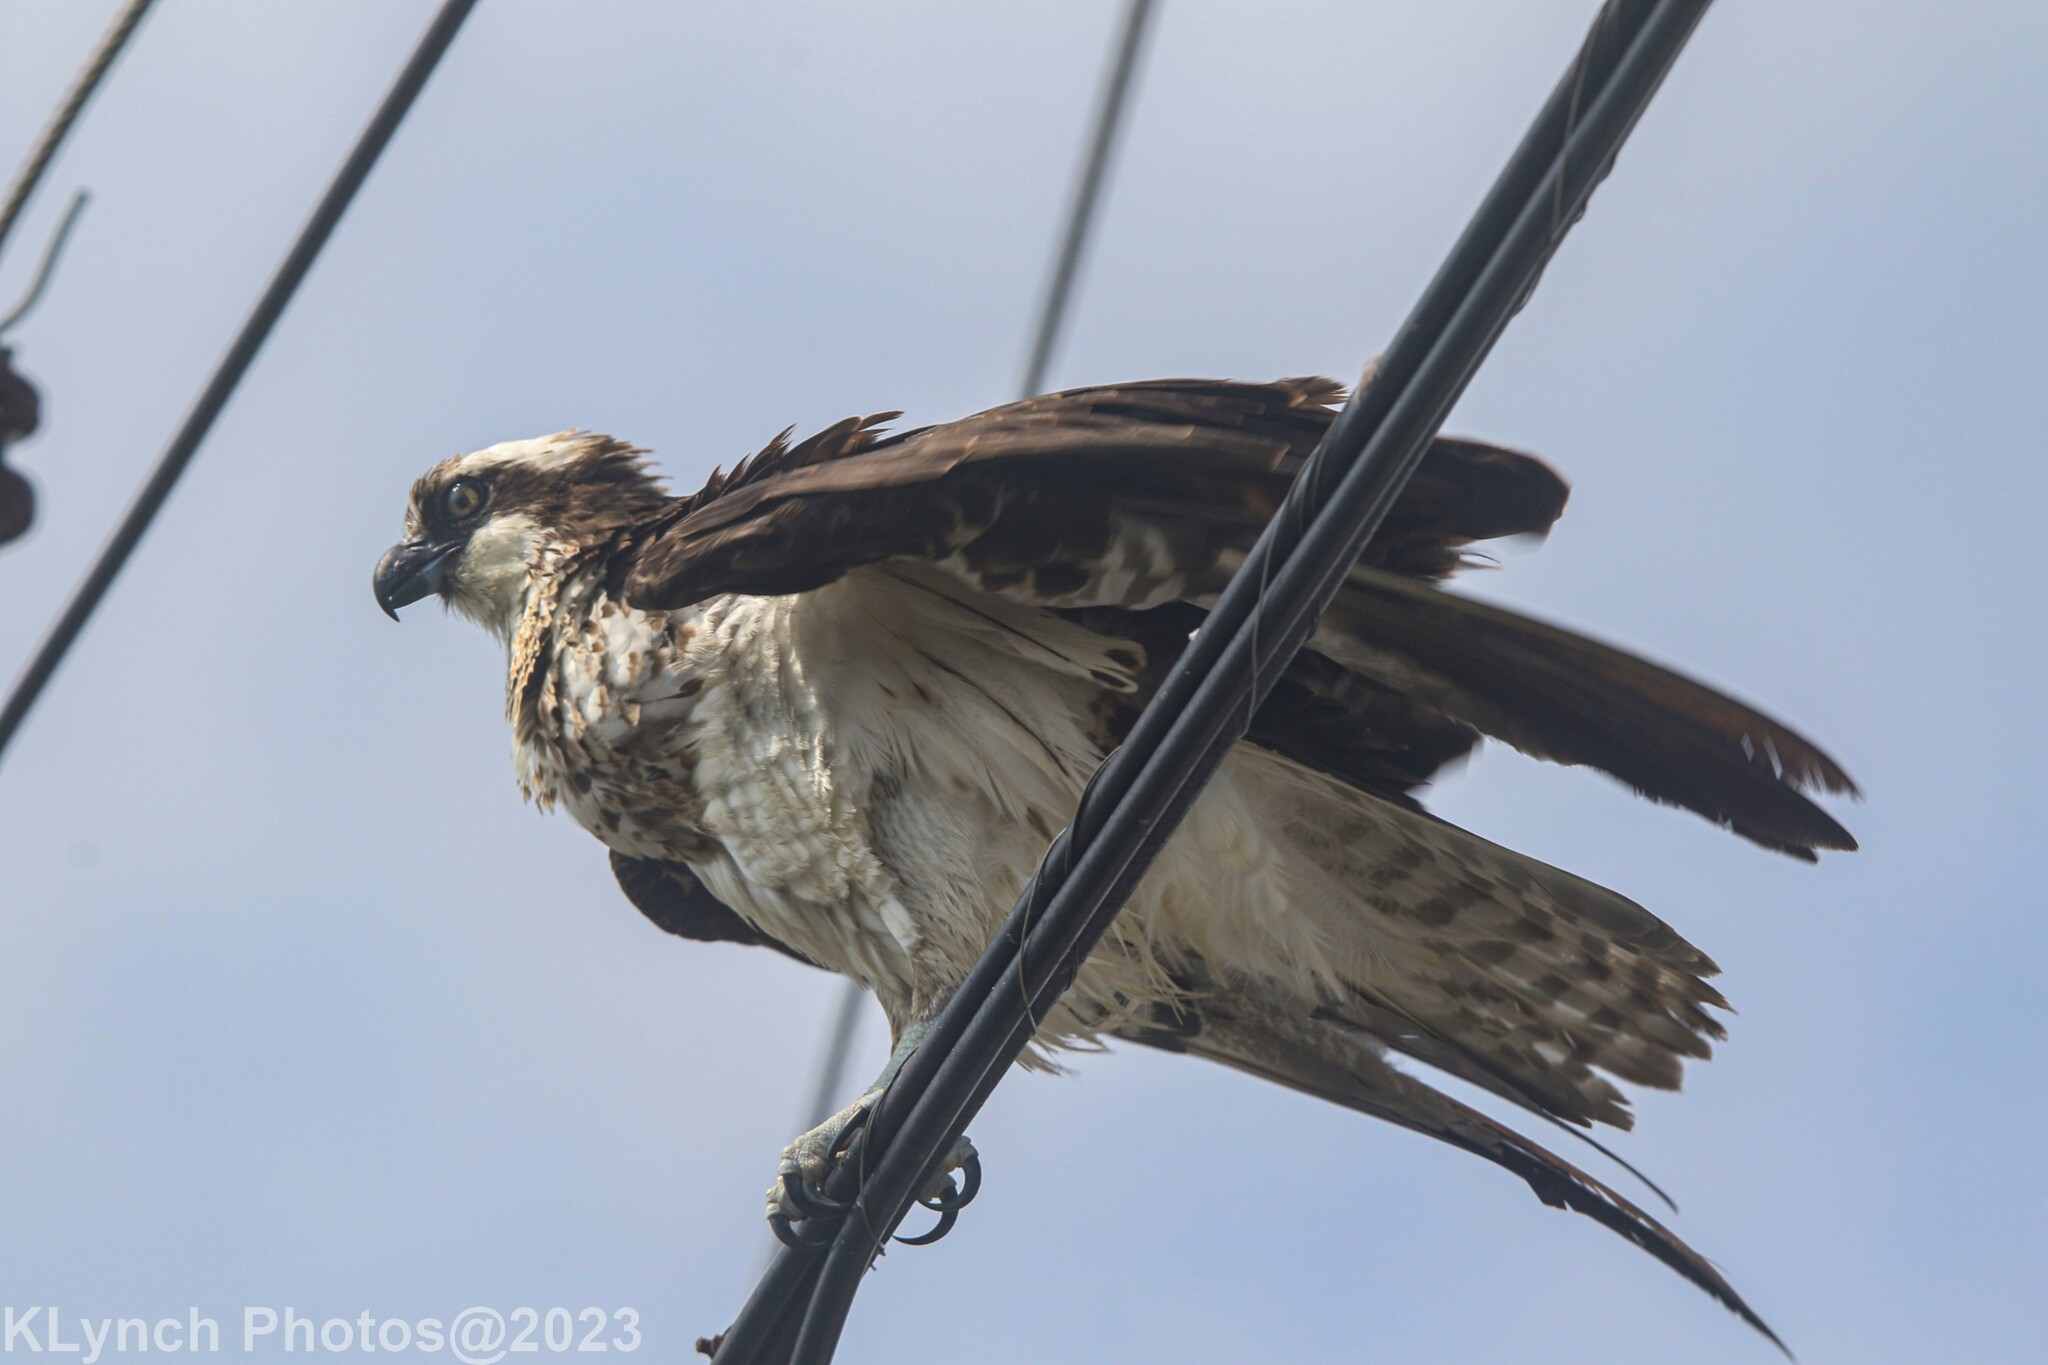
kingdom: Animalia
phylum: Chordata
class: Aves
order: Accipitriformes
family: Pandionidae
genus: Pandion
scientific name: Pandion haliaetus
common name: Osprey
